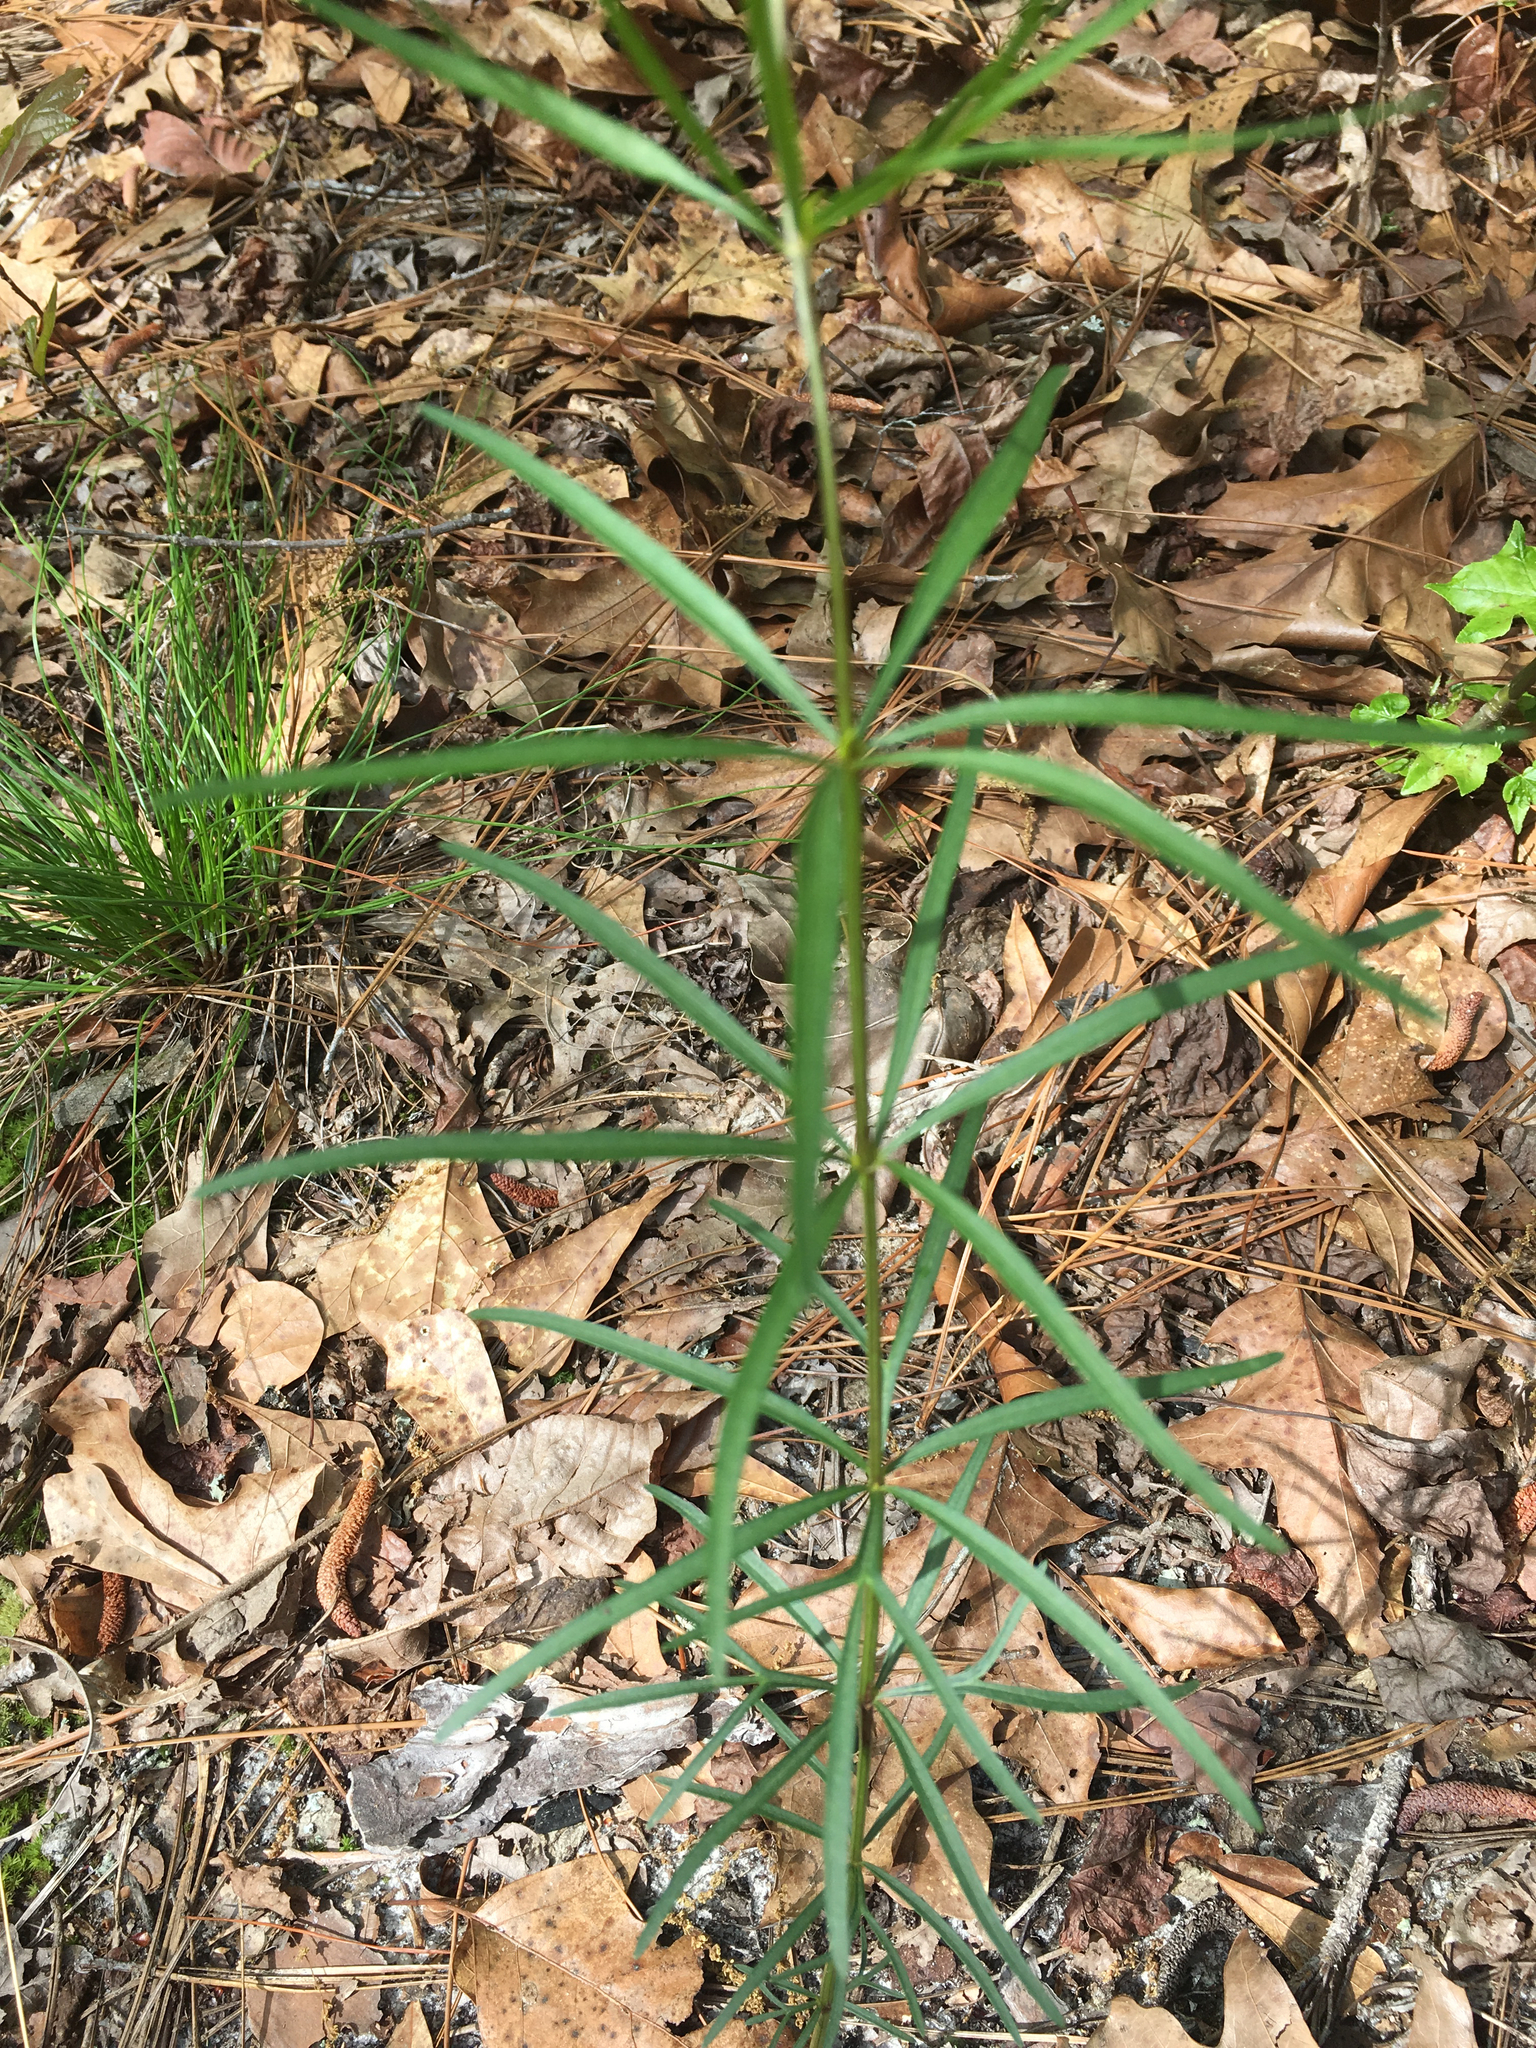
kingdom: Plantae
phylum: Tracheophyta
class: Magnoliopsida
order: Asterales
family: Asteraceae
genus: Coreopsis
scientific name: Coreopsis delphiniifolia
